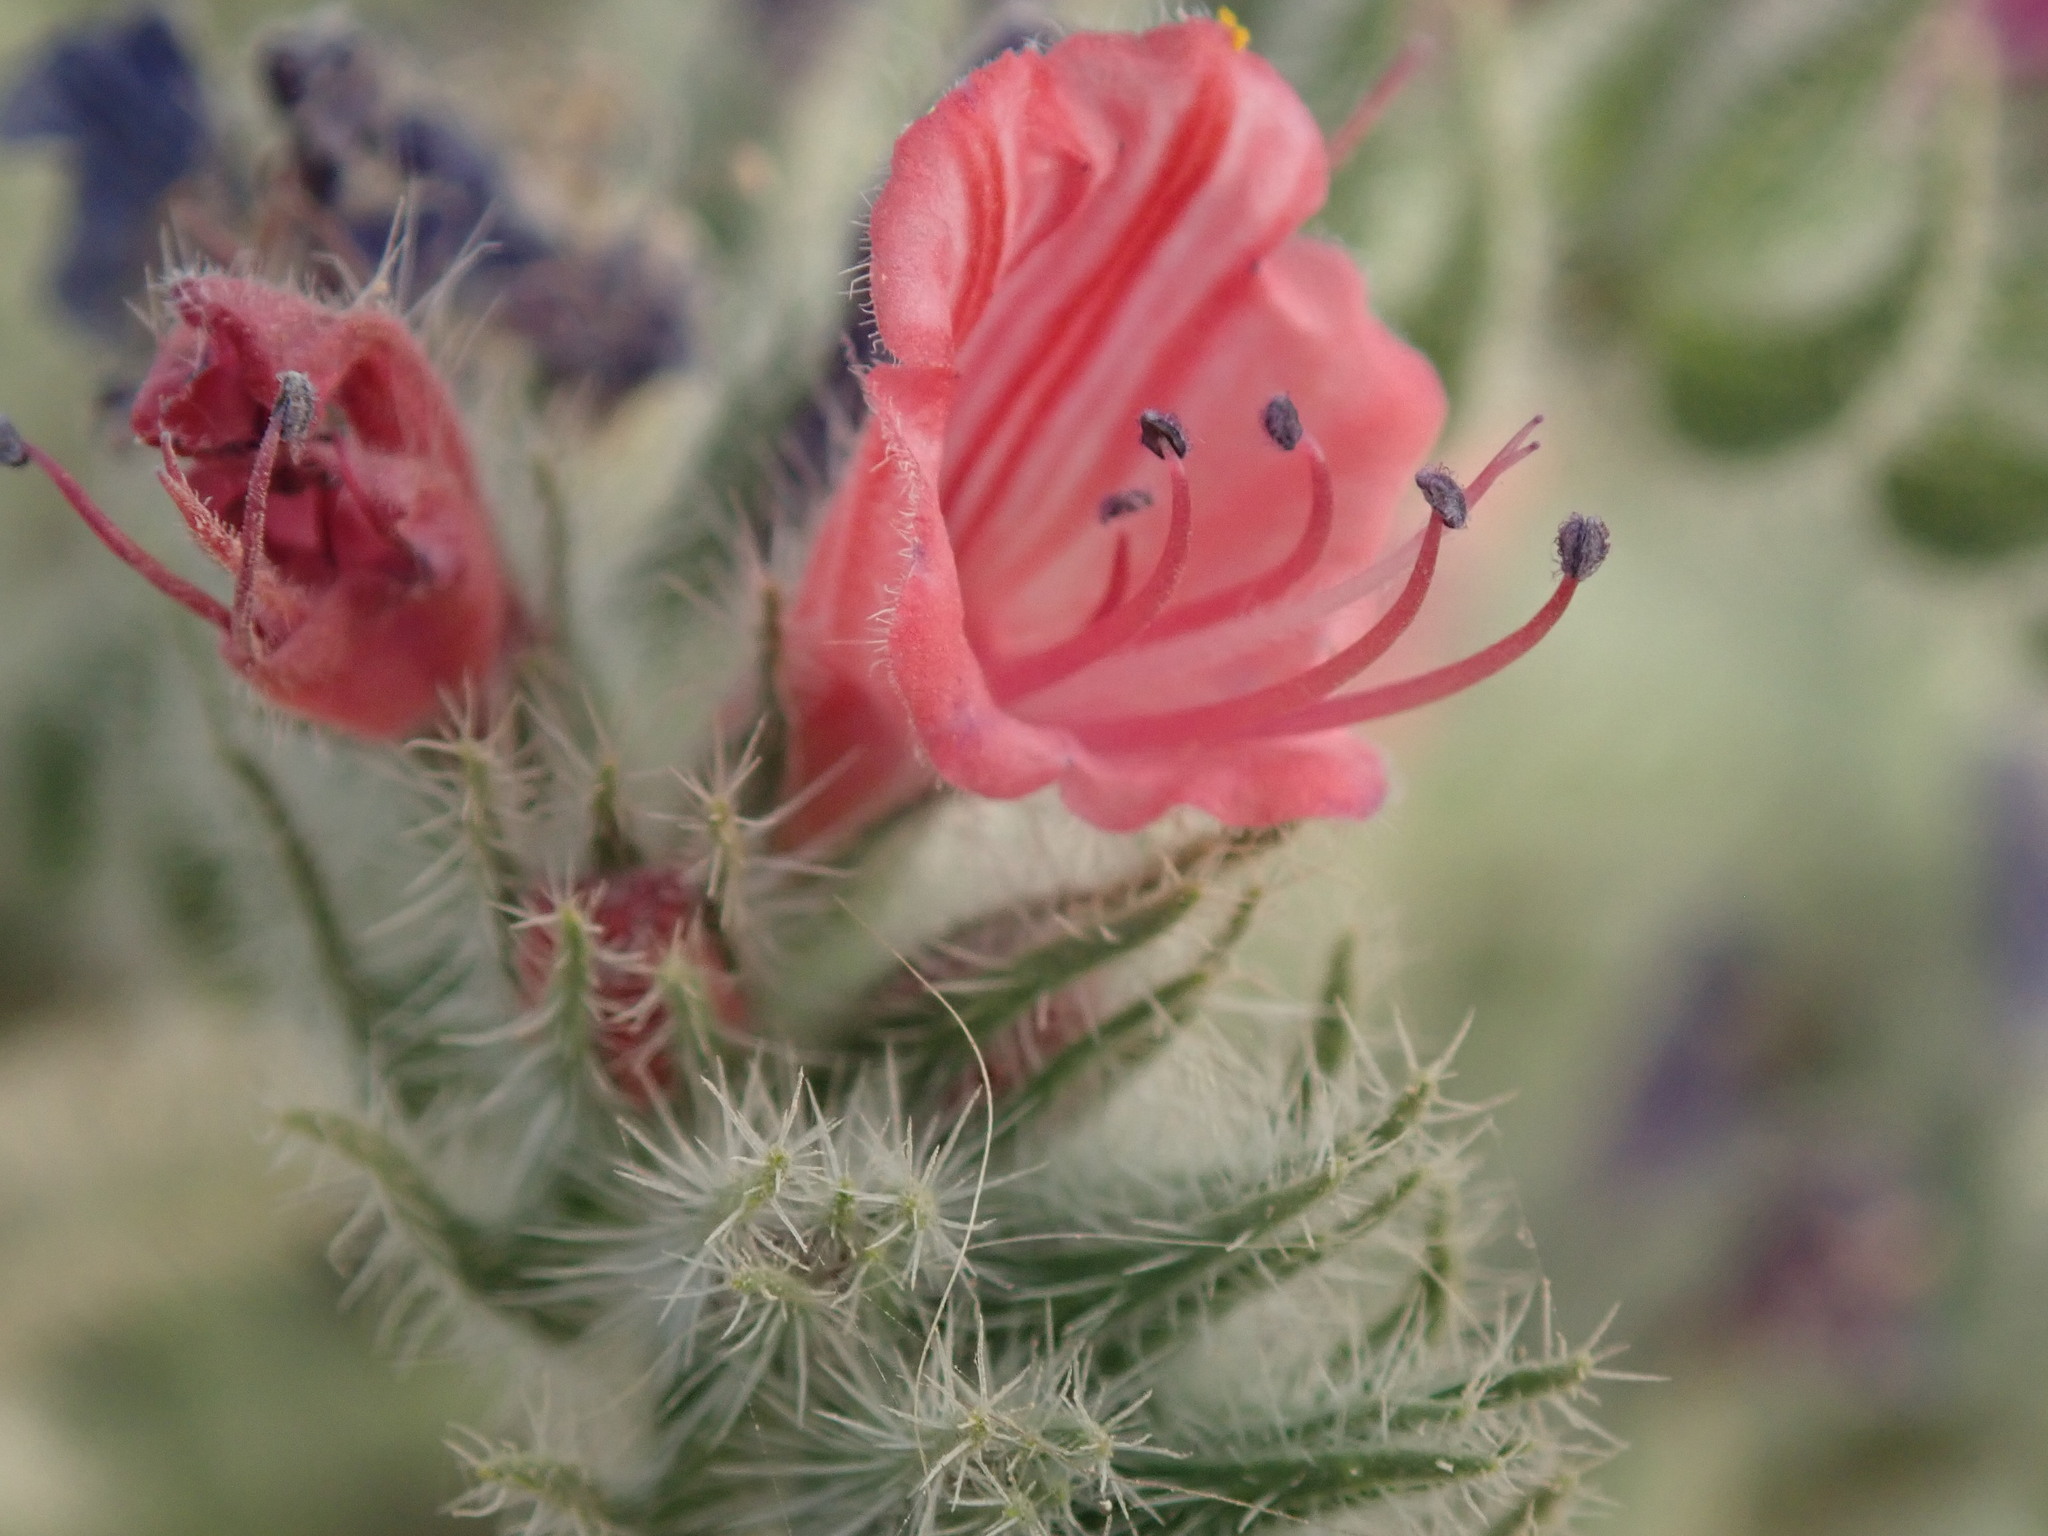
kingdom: Plantae
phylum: Tracheophyta
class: Magnoliopsida
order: Boraginales
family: Boraginaceae
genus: Echium
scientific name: Echium angustifolium
